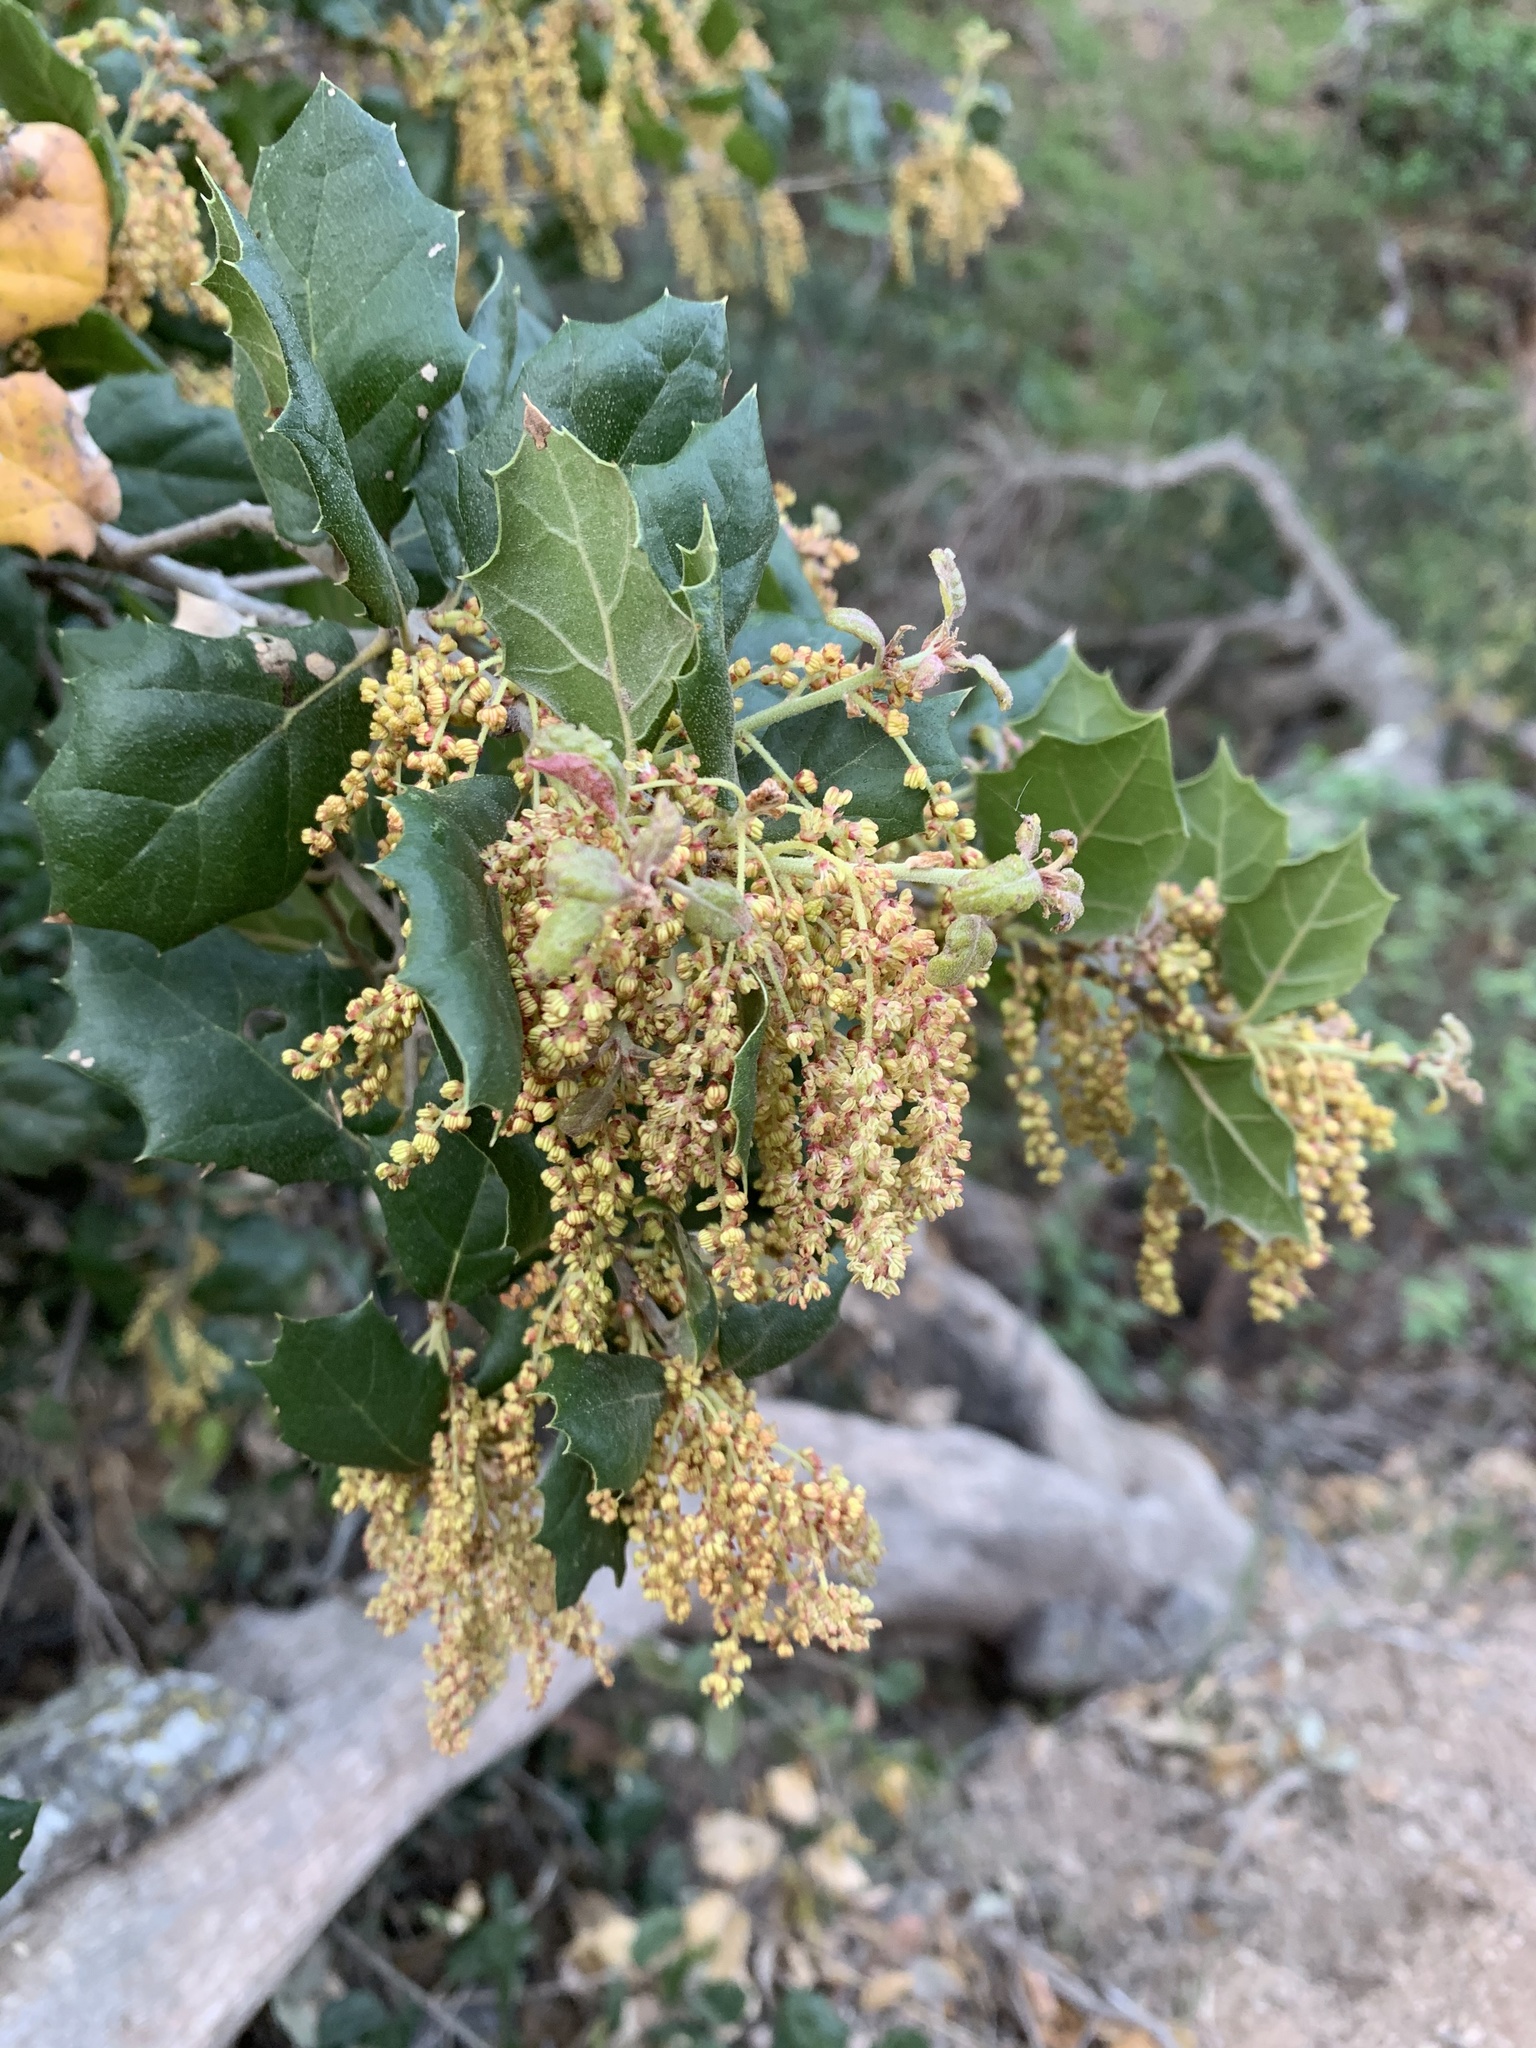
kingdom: Plantae
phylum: Tracheophyta
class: Magnoliopsida
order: Fagales
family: Fagaceae
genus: Quercus
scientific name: Quercus agrifolia
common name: California live oak
